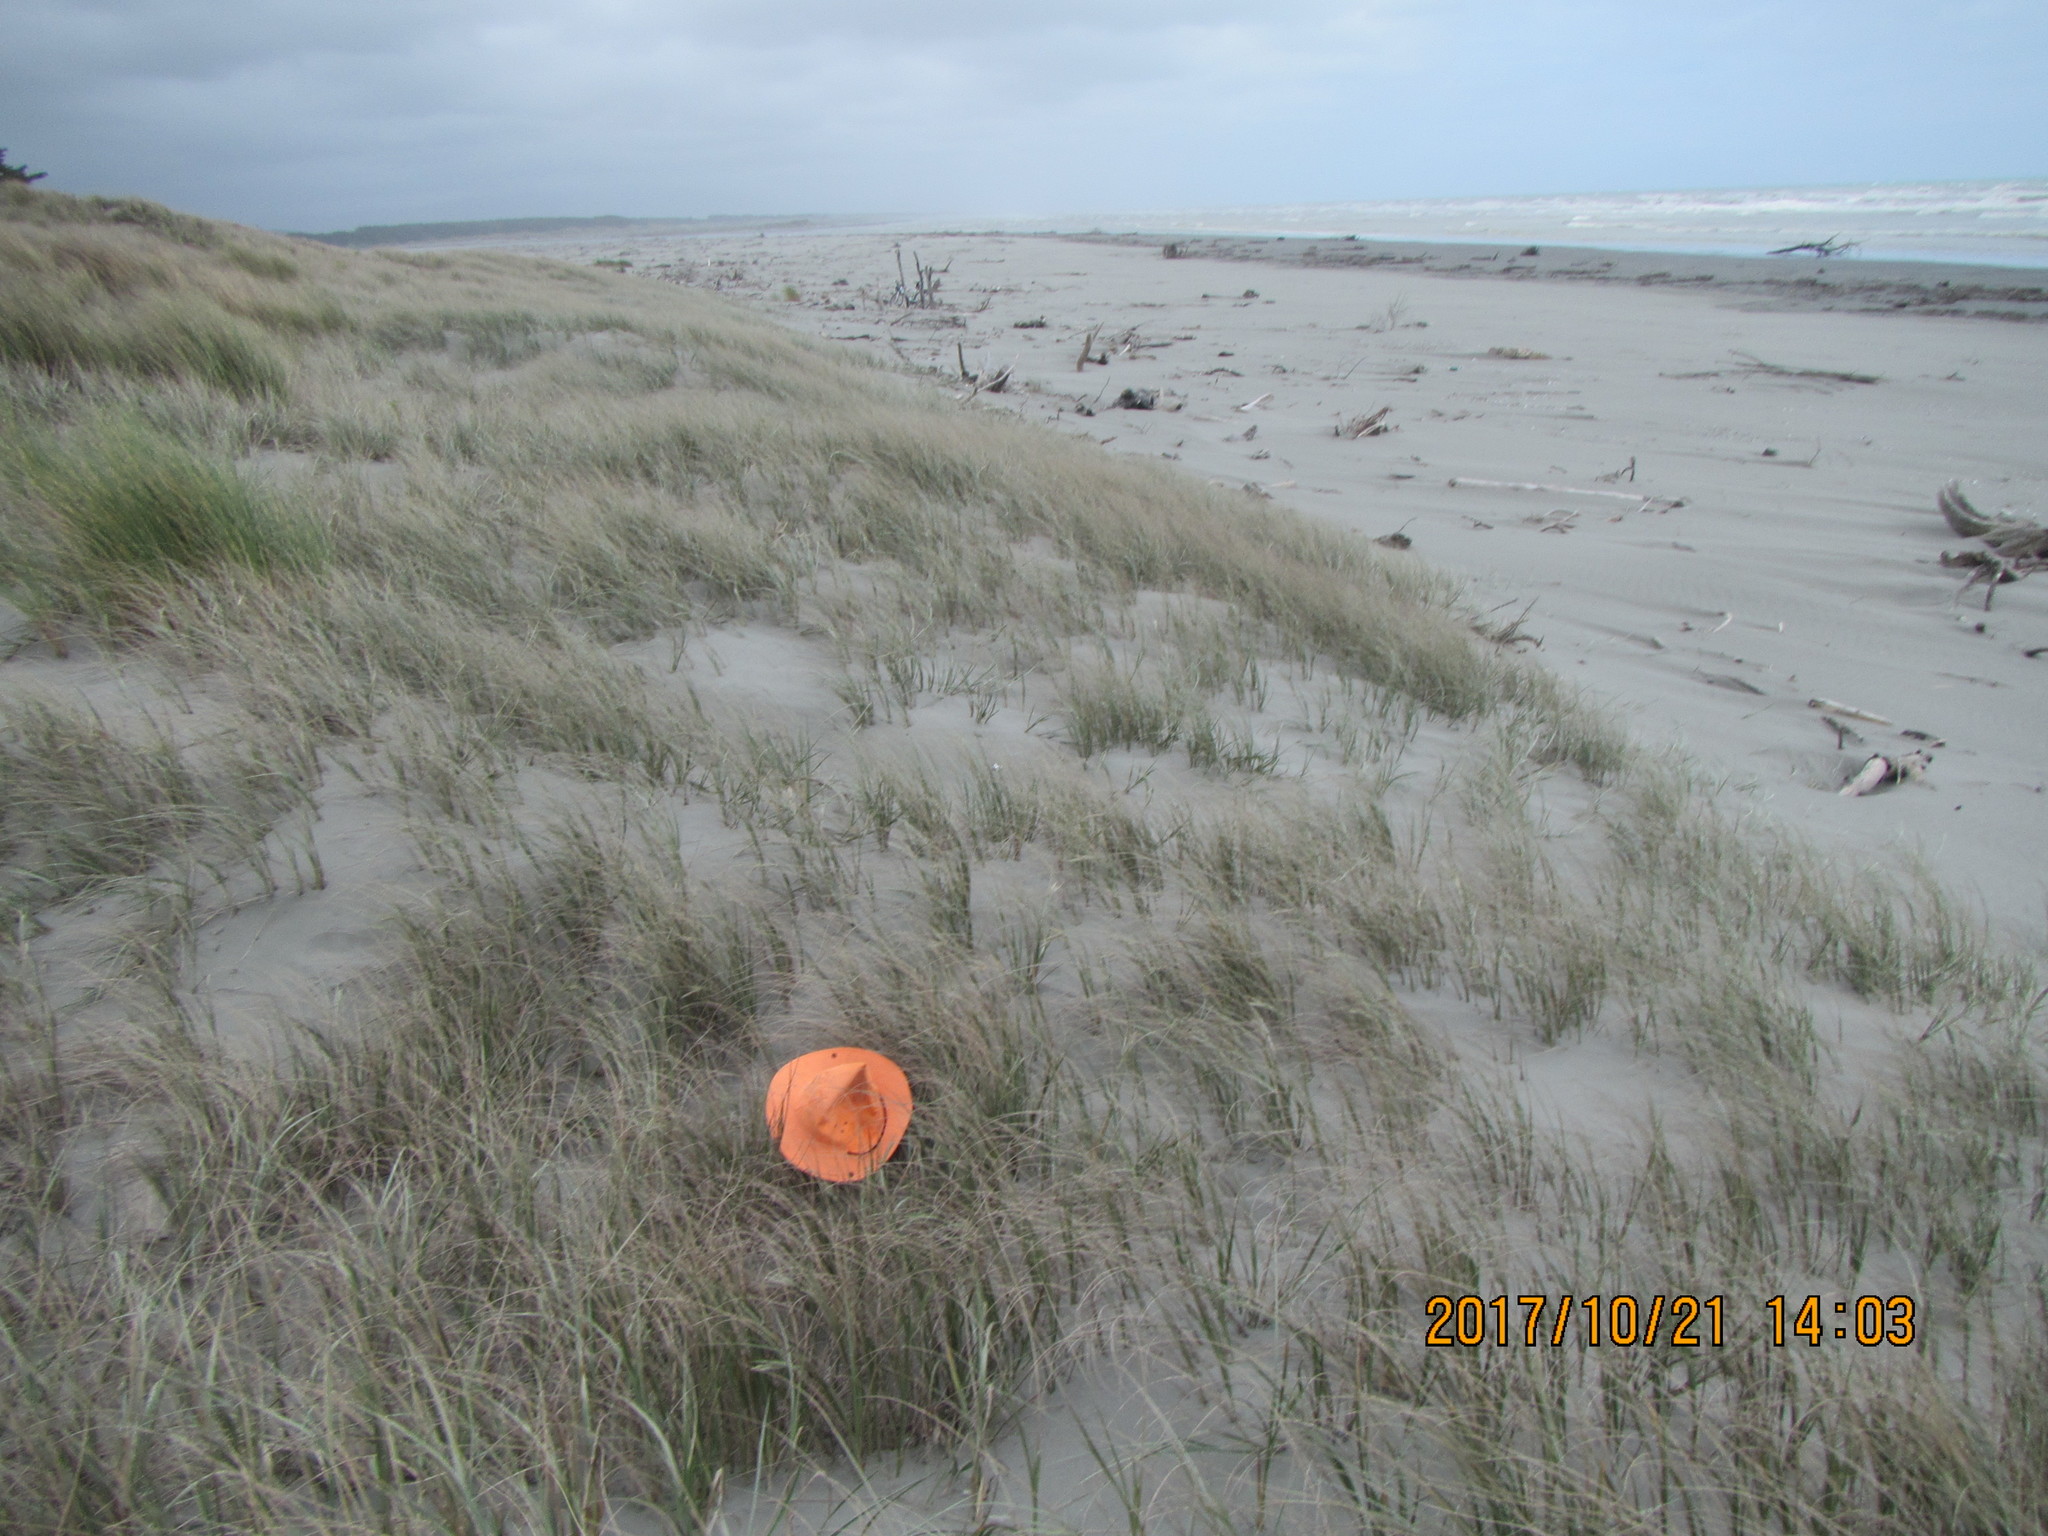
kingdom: Animalia
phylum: Arthropoda
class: Arachnida
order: Araneae
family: Theridiidae
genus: Latrodectus
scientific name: Latrodectus katipo
